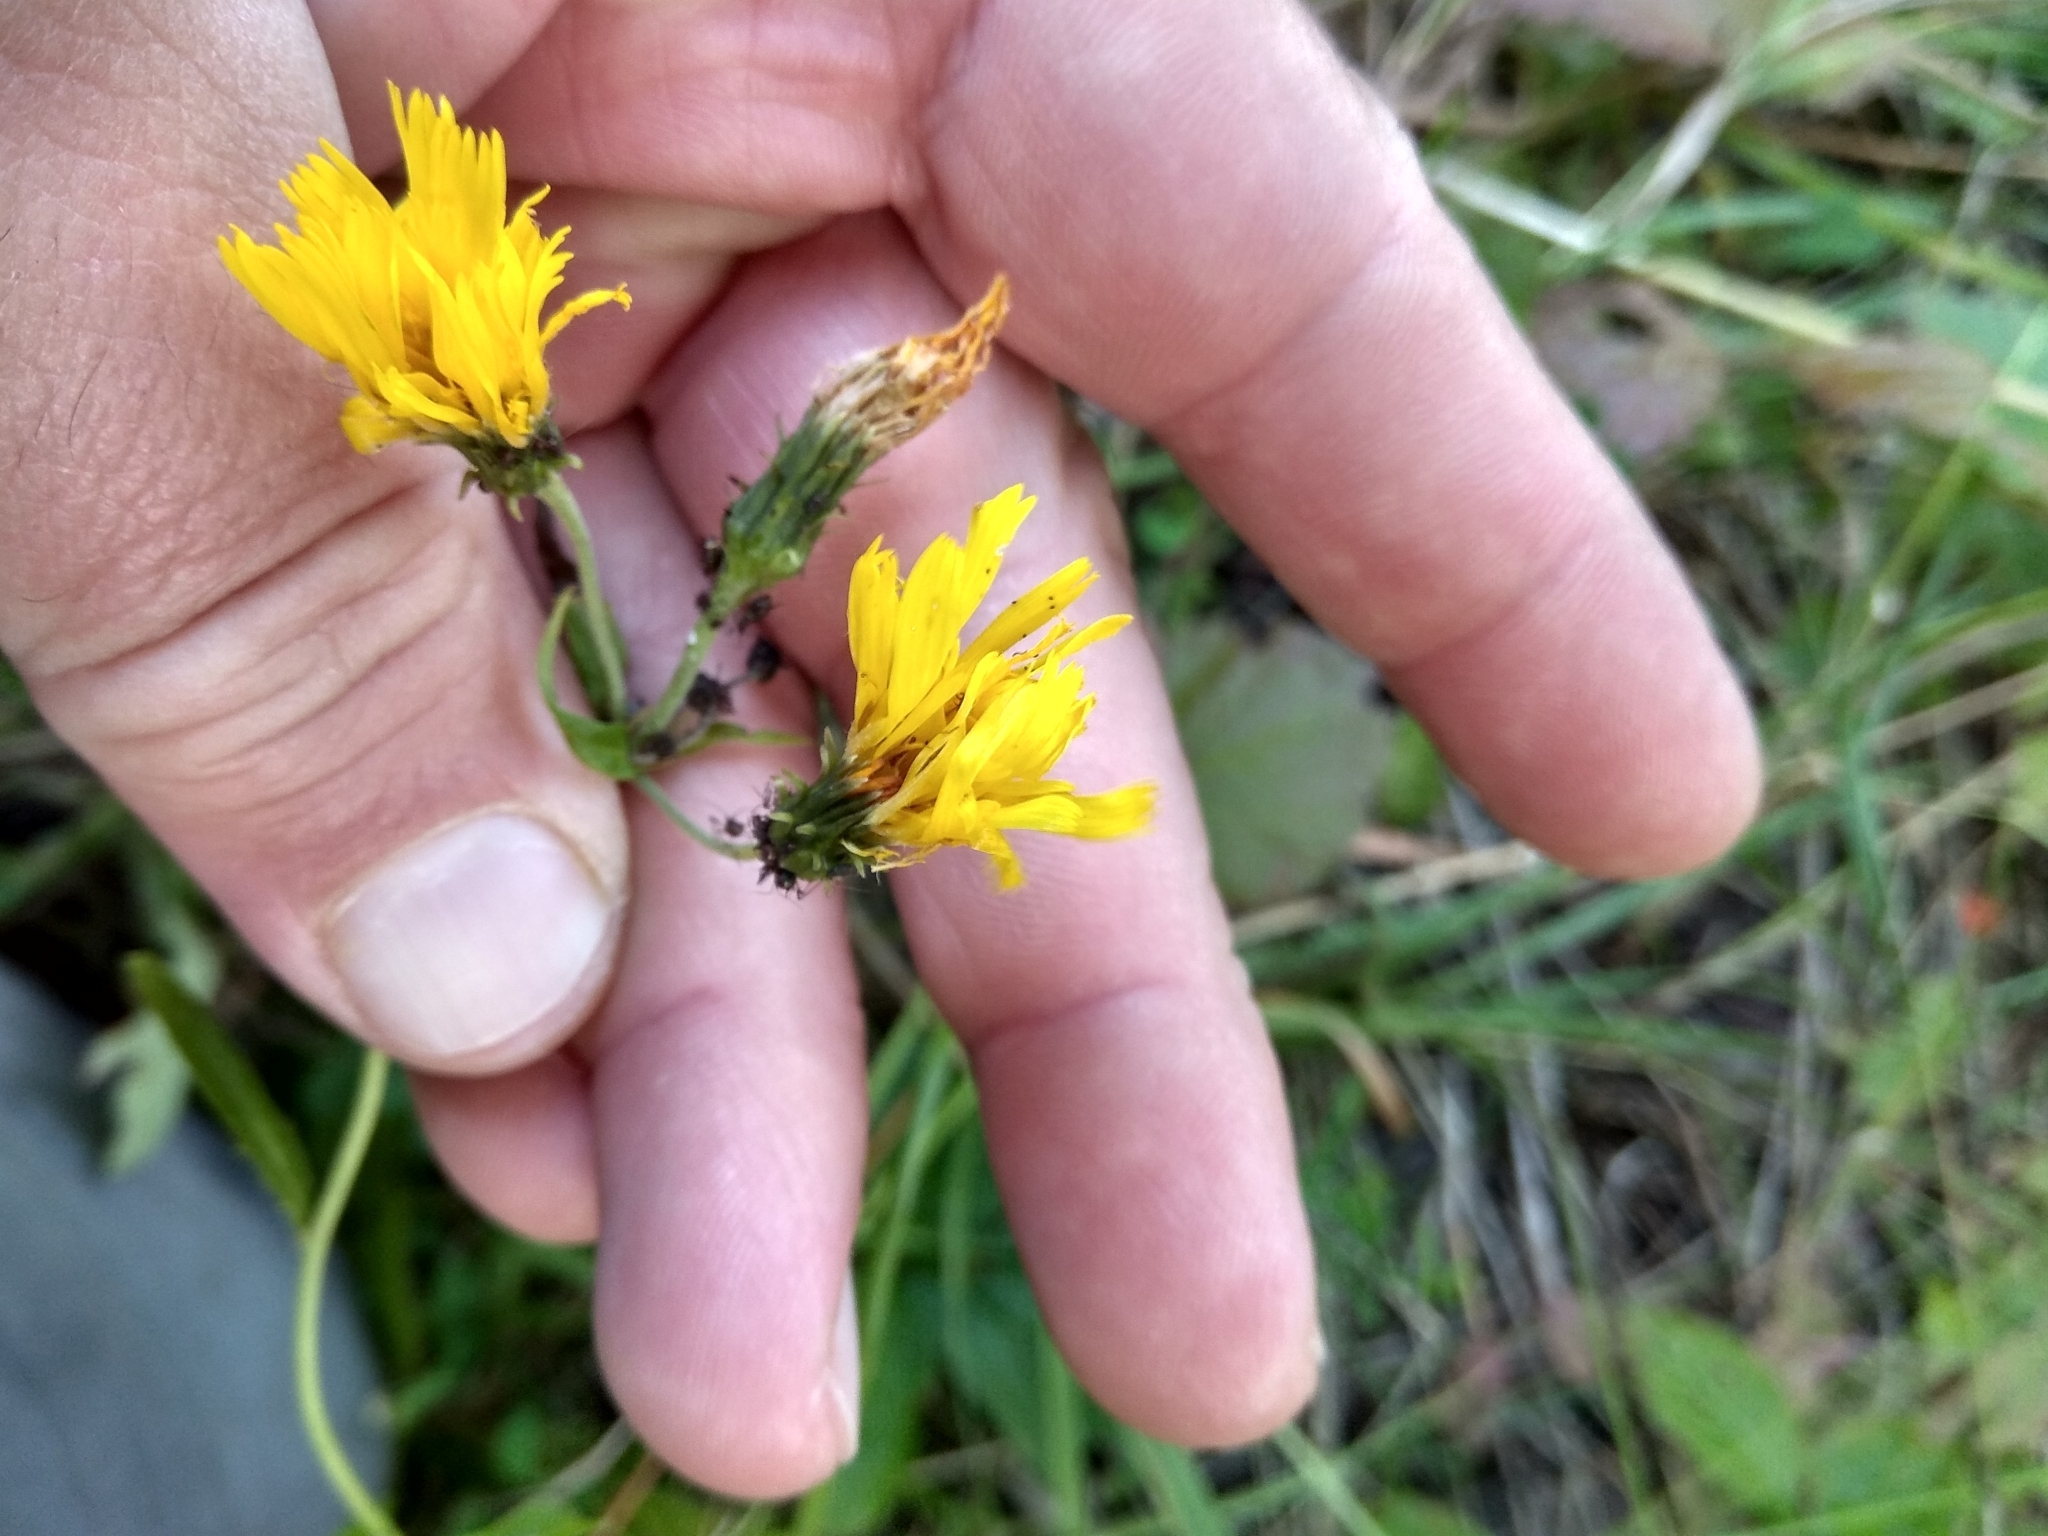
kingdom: Plantae
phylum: Tracheophyta
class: Magnoliopsida
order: Asterales
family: Asteraceae
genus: Hieracium
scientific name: Hieracium umbellatum
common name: Northern hawkweed
